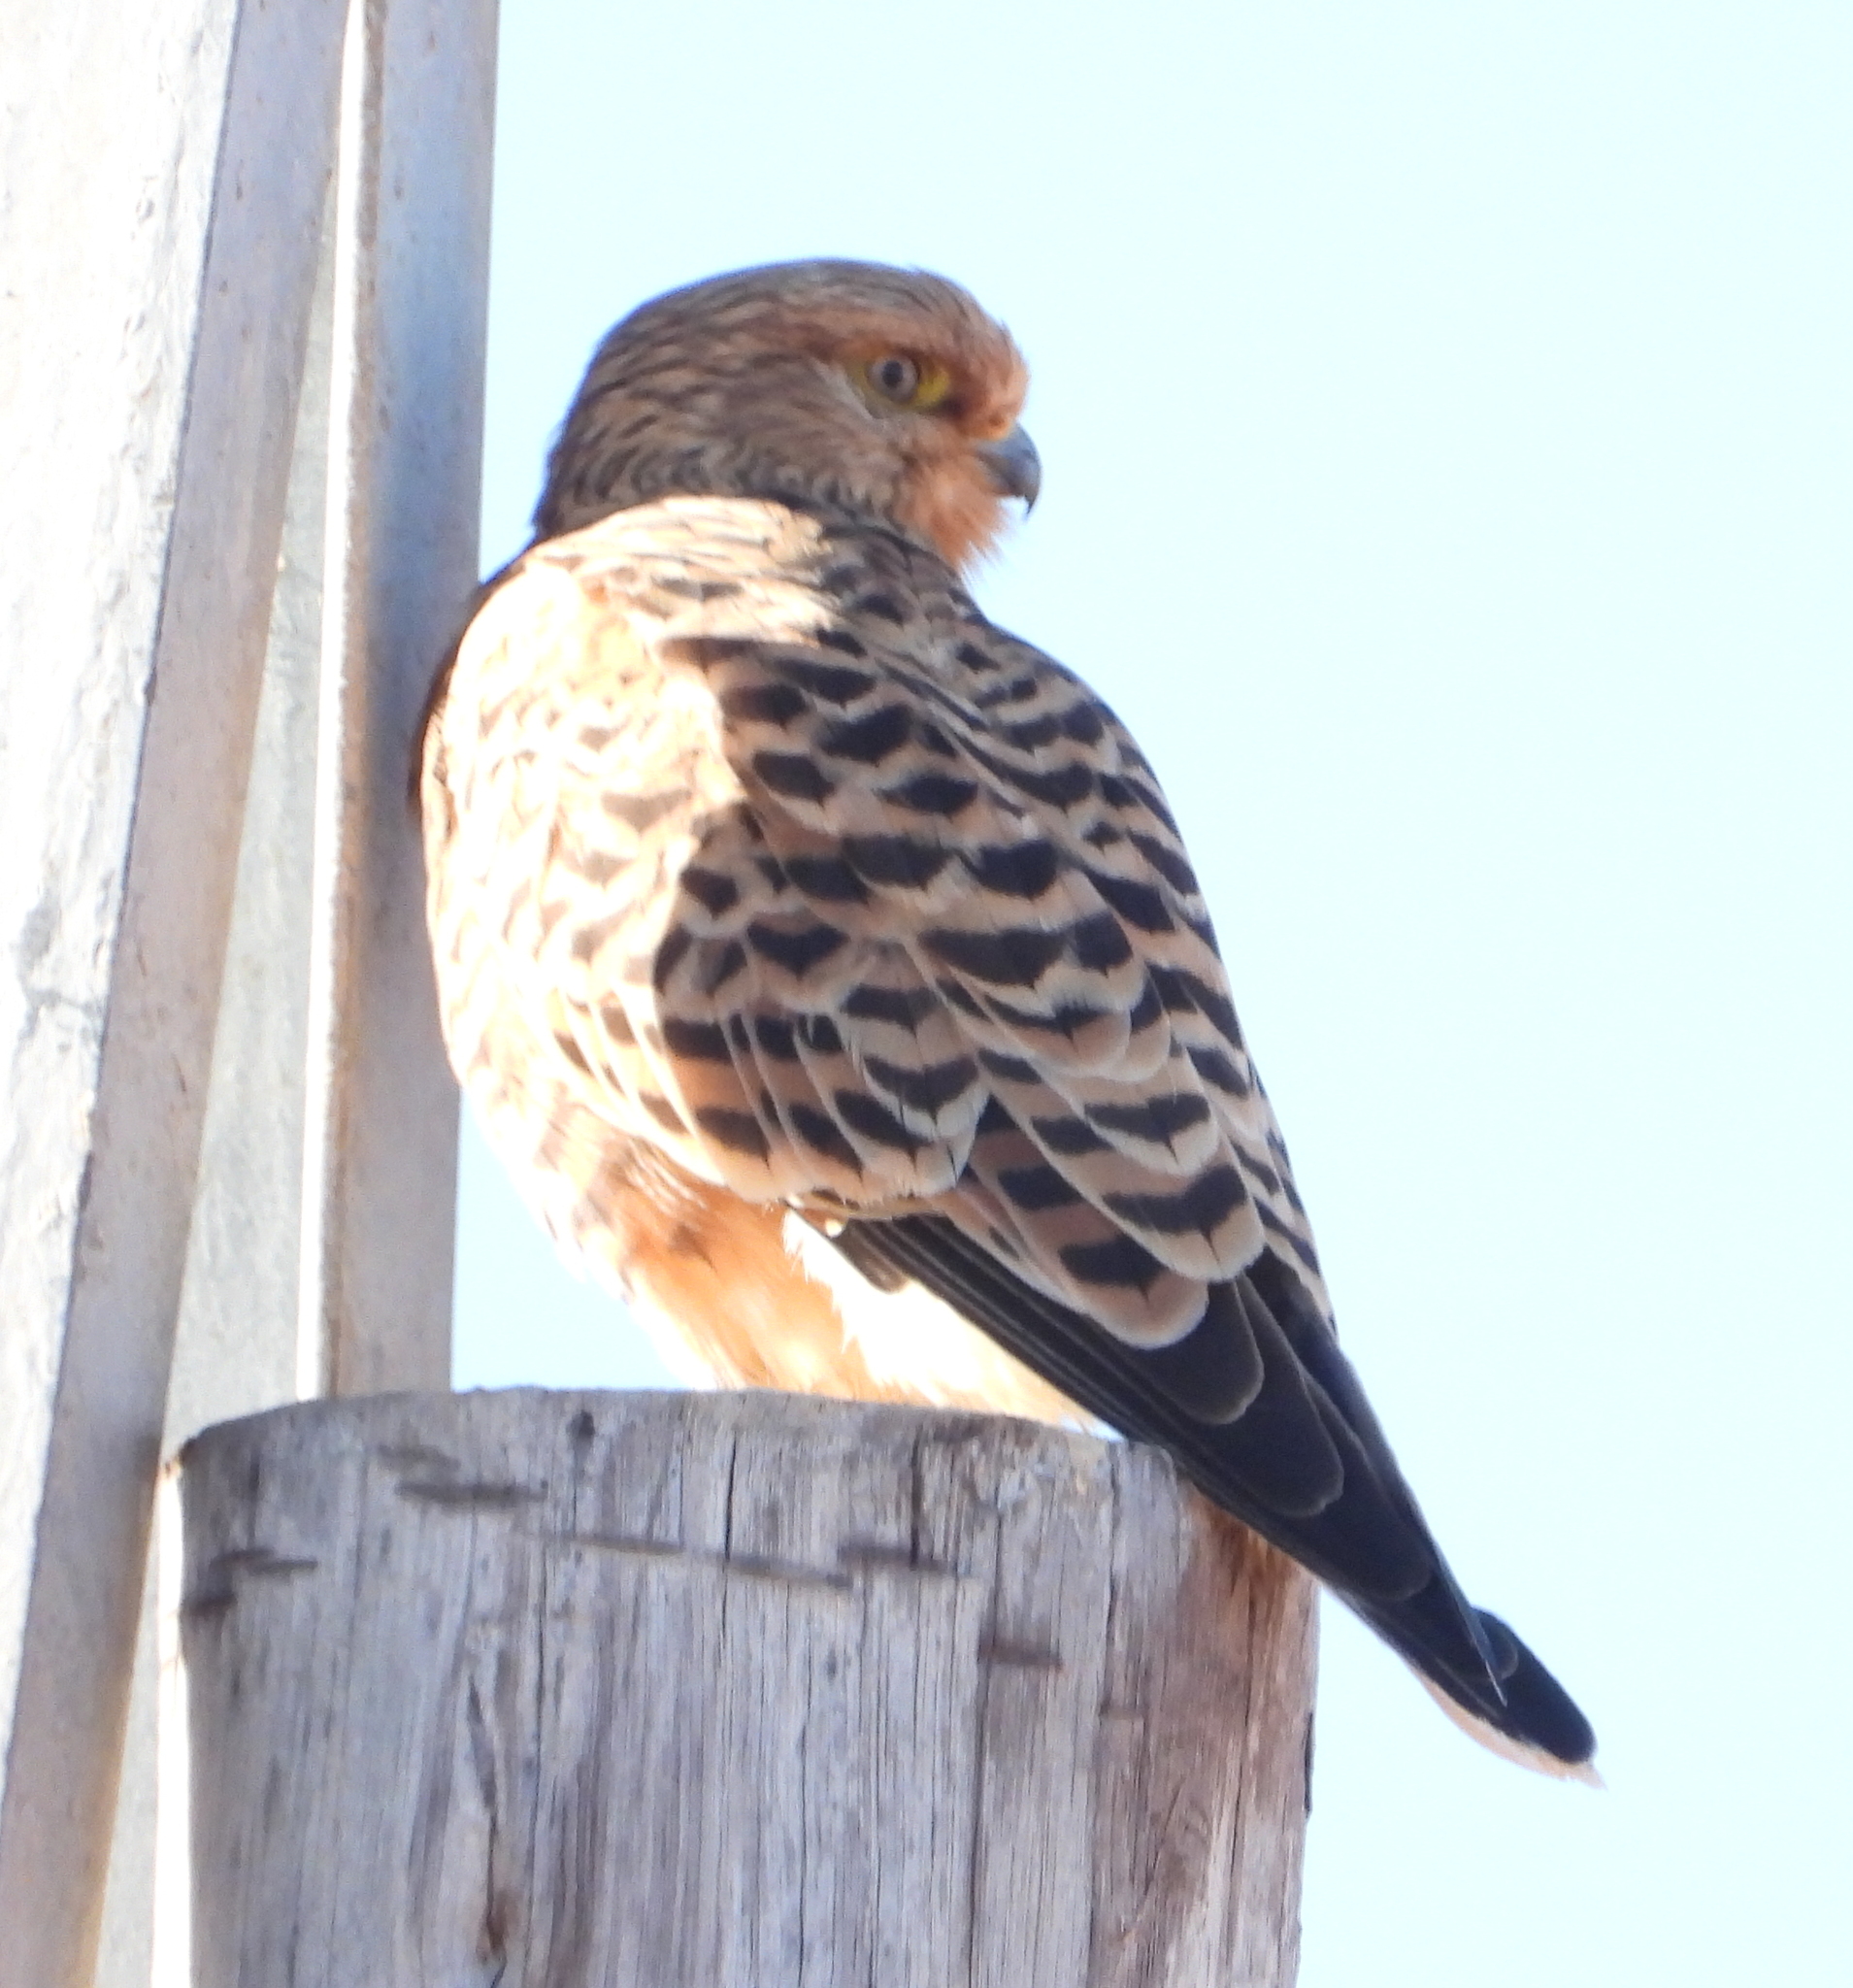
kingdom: Animalia
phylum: Chordata
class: Aves
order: Falconiformes
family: Falconidae
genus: Falco
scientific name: Falco rupicoloides
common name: Greater kestrel
